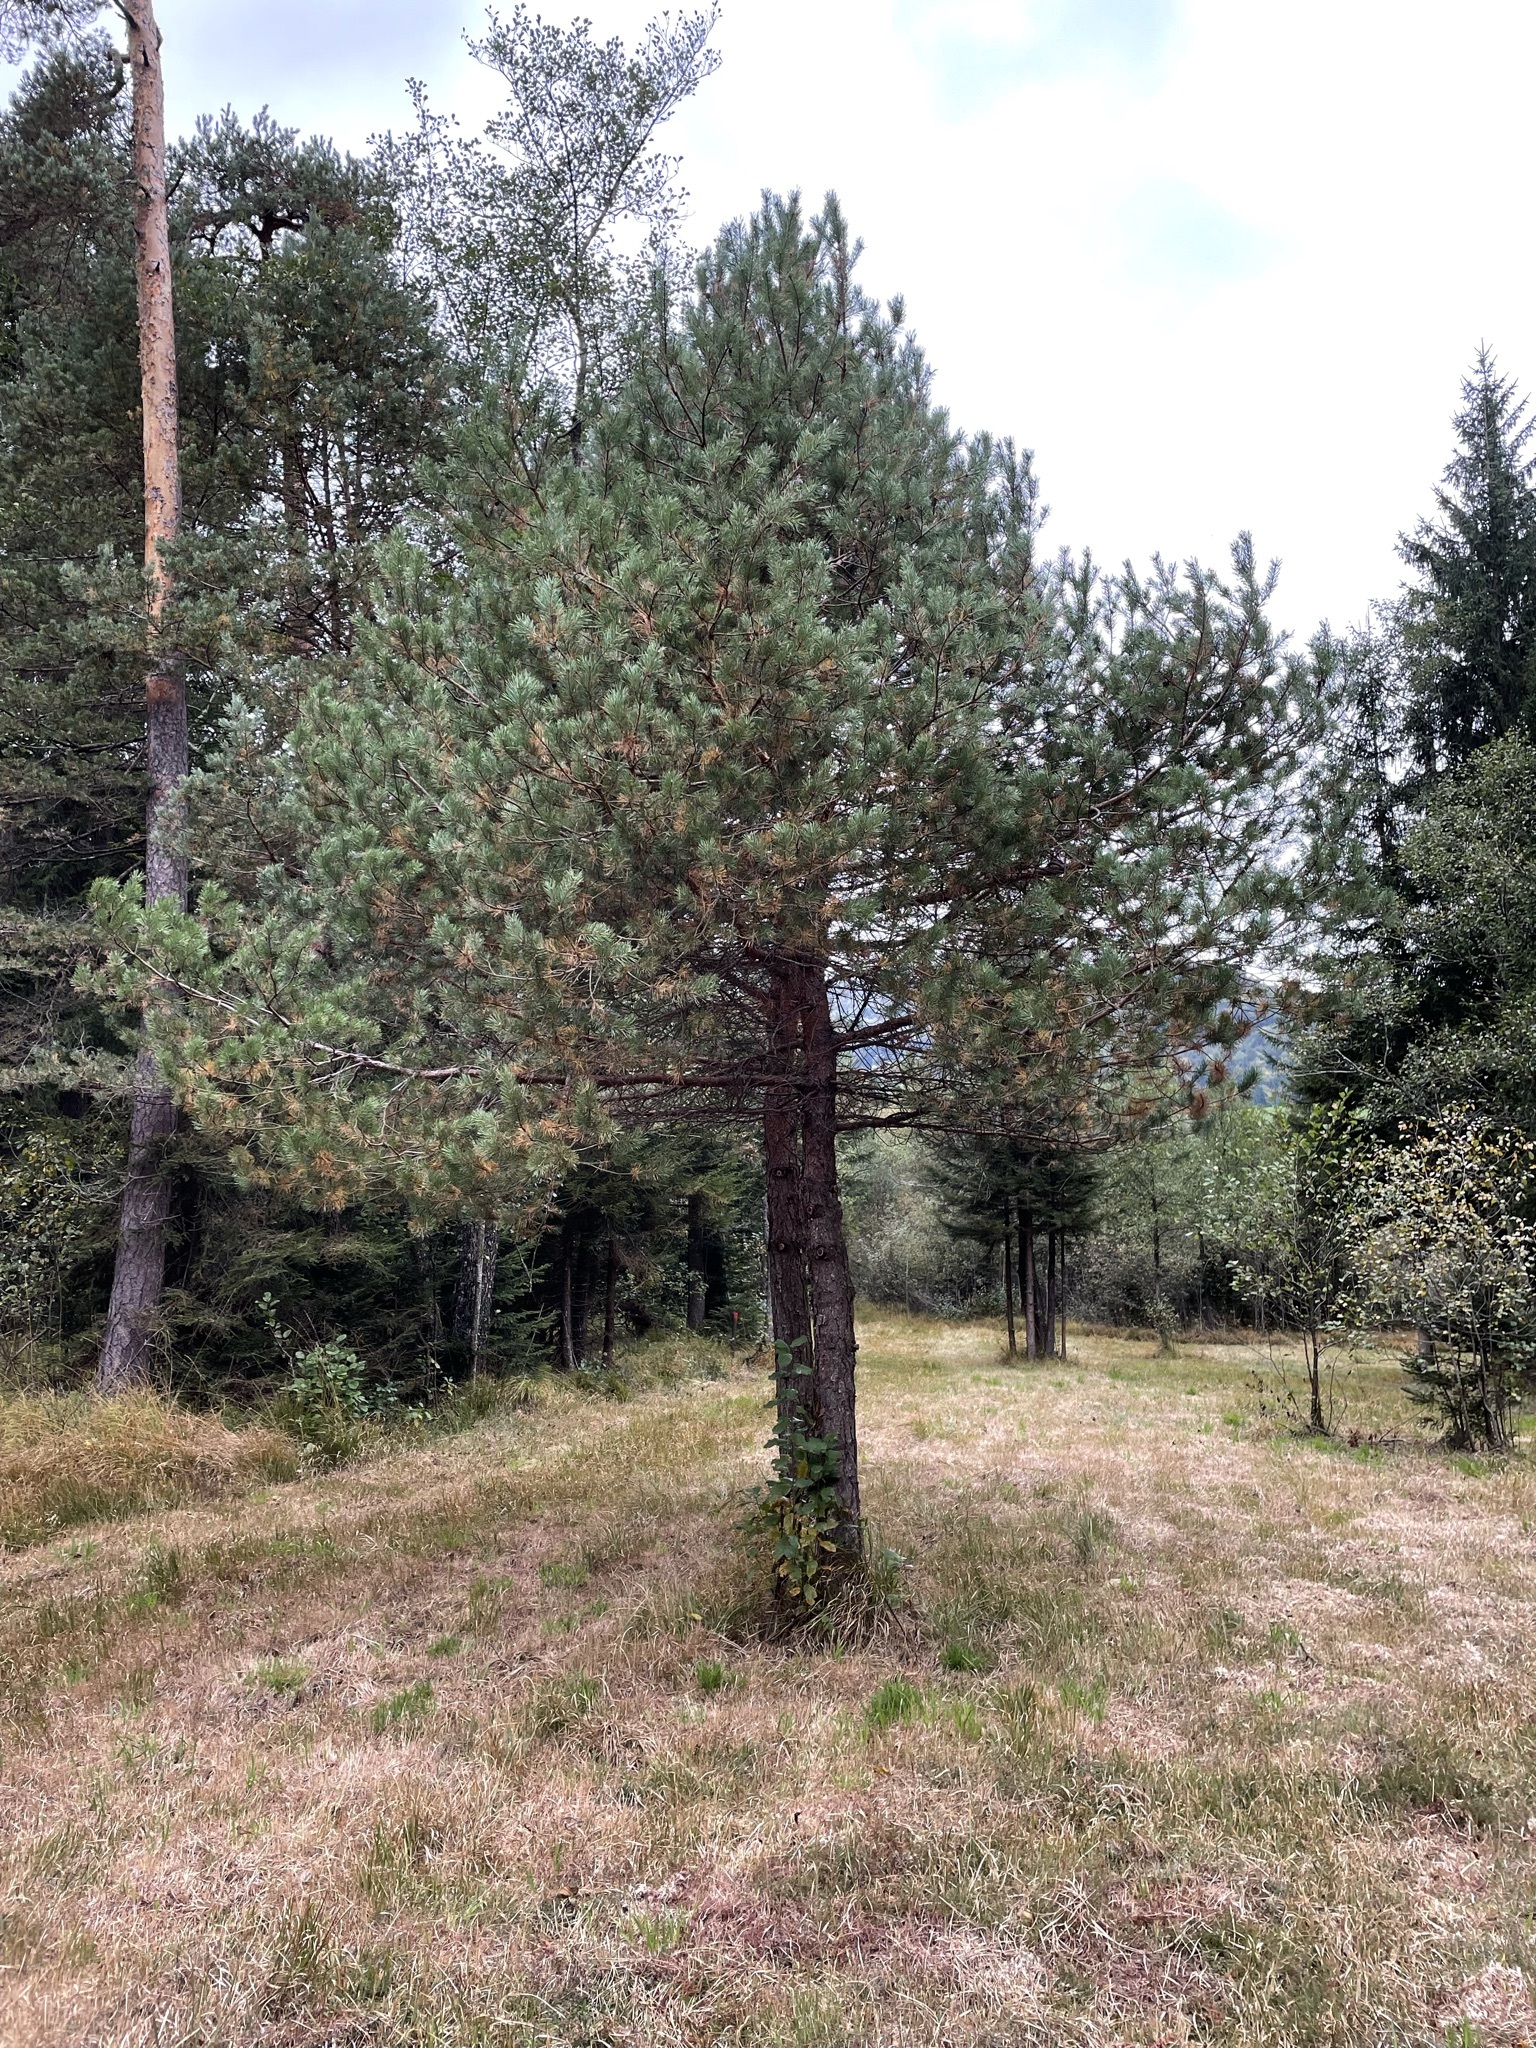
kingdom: Plantae
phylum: Tracheophyta
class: Pinopsida
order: Pinales
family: Pinaceae
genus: Pinus
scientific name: Pinus sylvestris
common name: Scots pine
